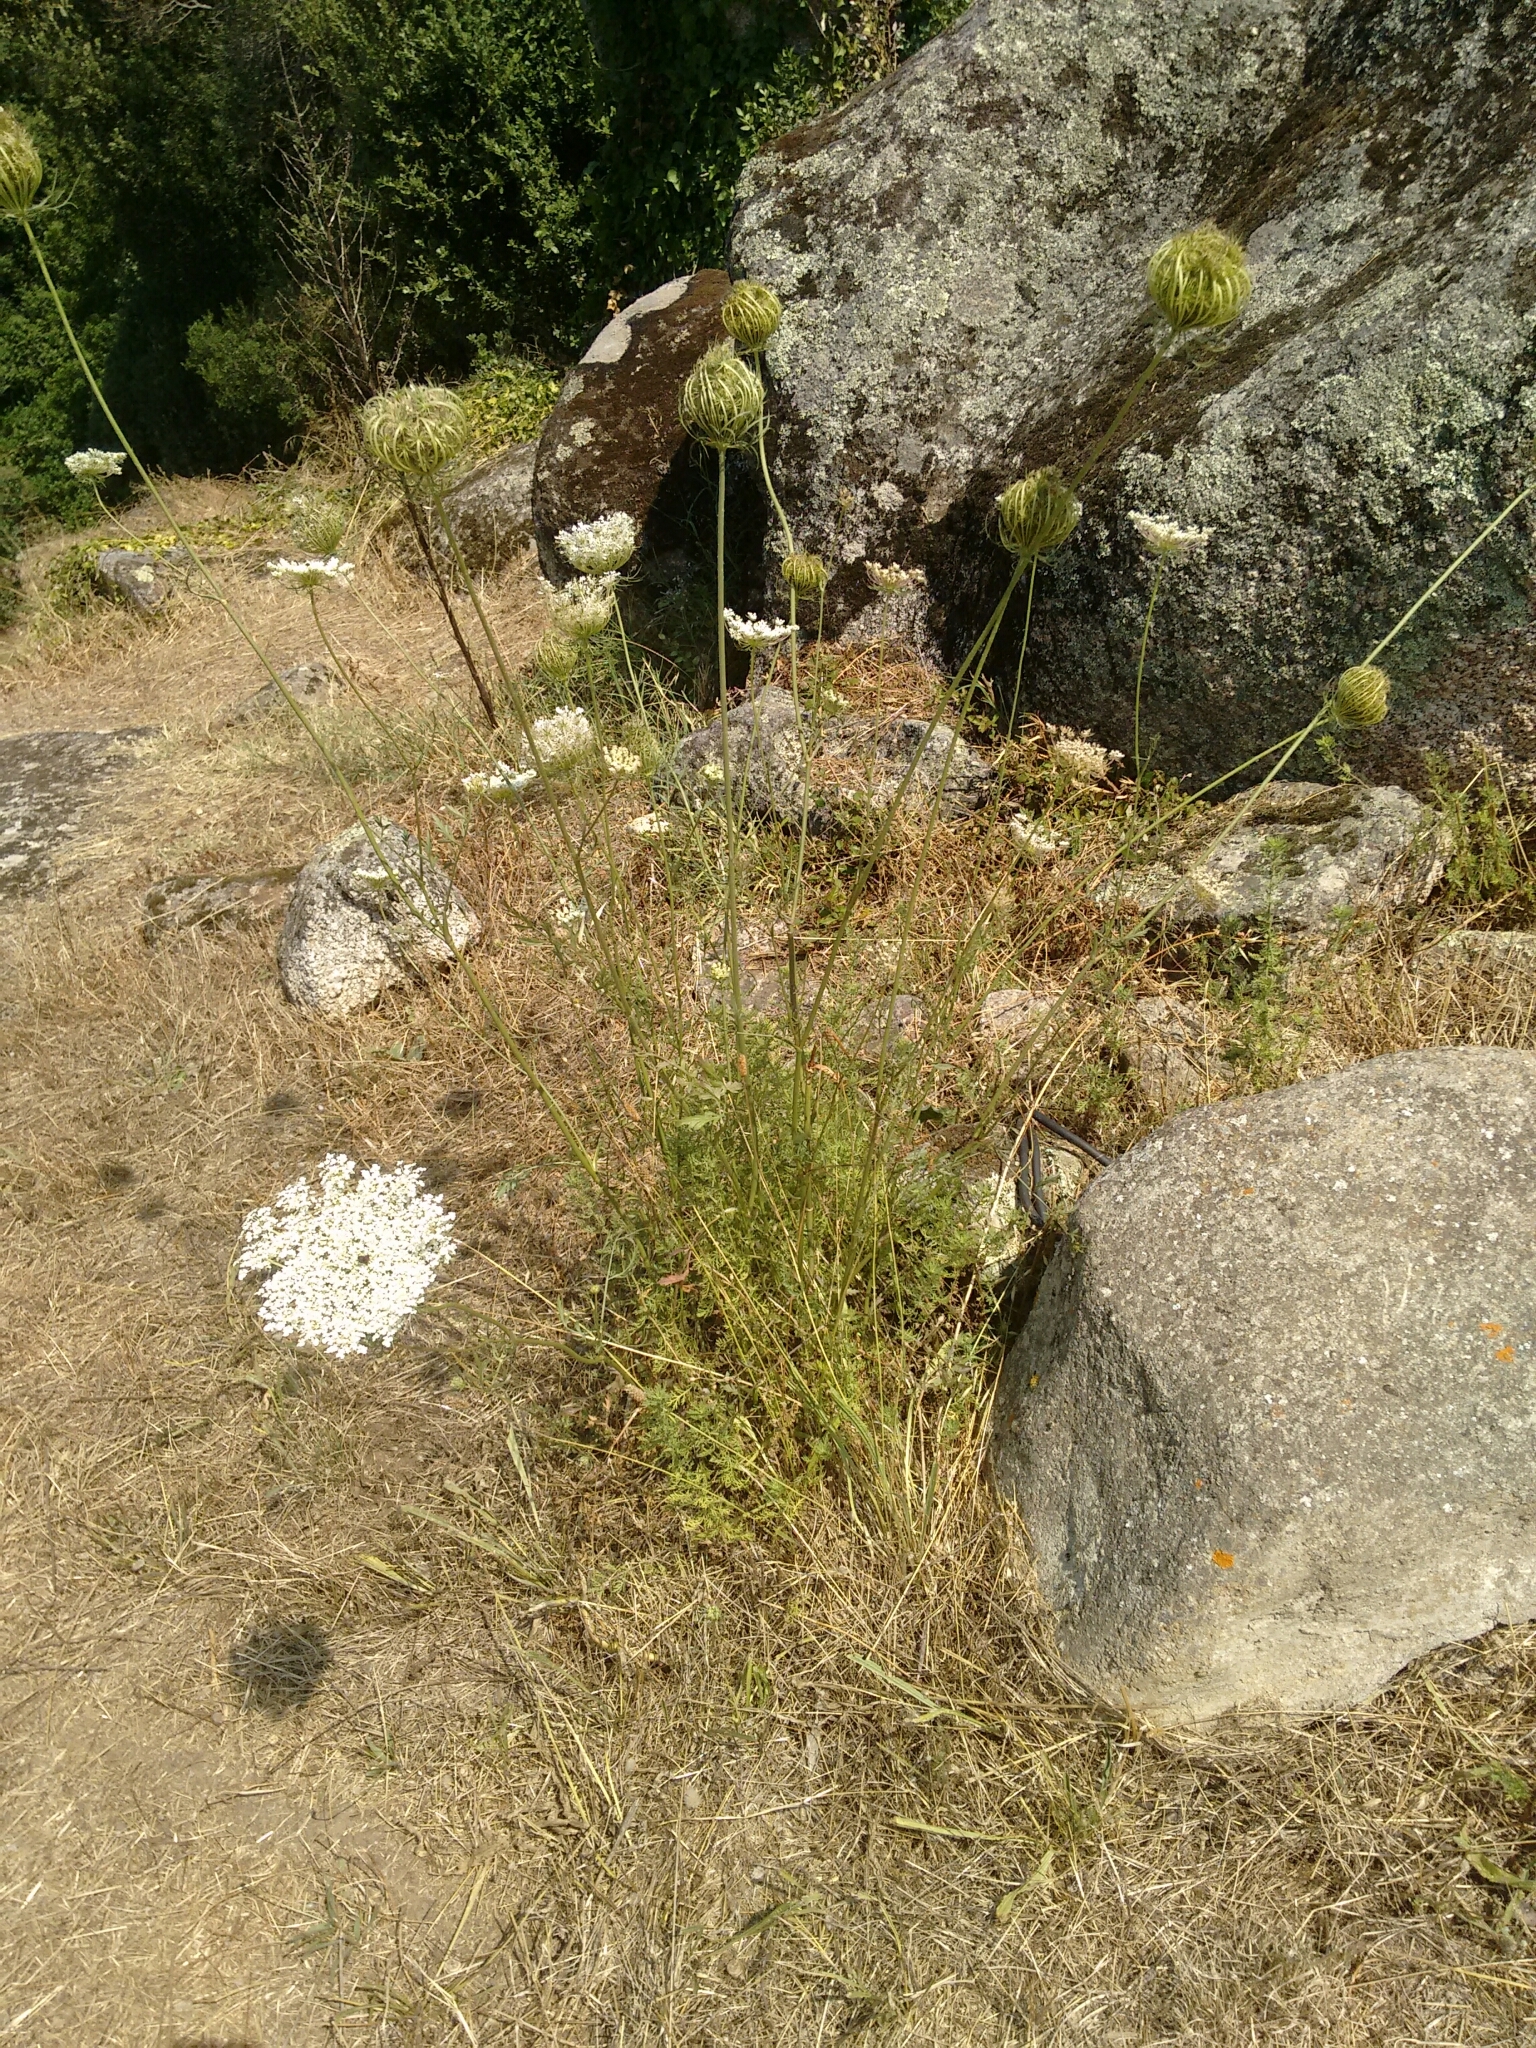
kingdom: Plantae
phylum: Tracheophyta
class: Magnoliopsida
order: Apiales
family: Apiaceae
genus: Daucus
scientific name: Daucus carota
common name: Wild carrot
